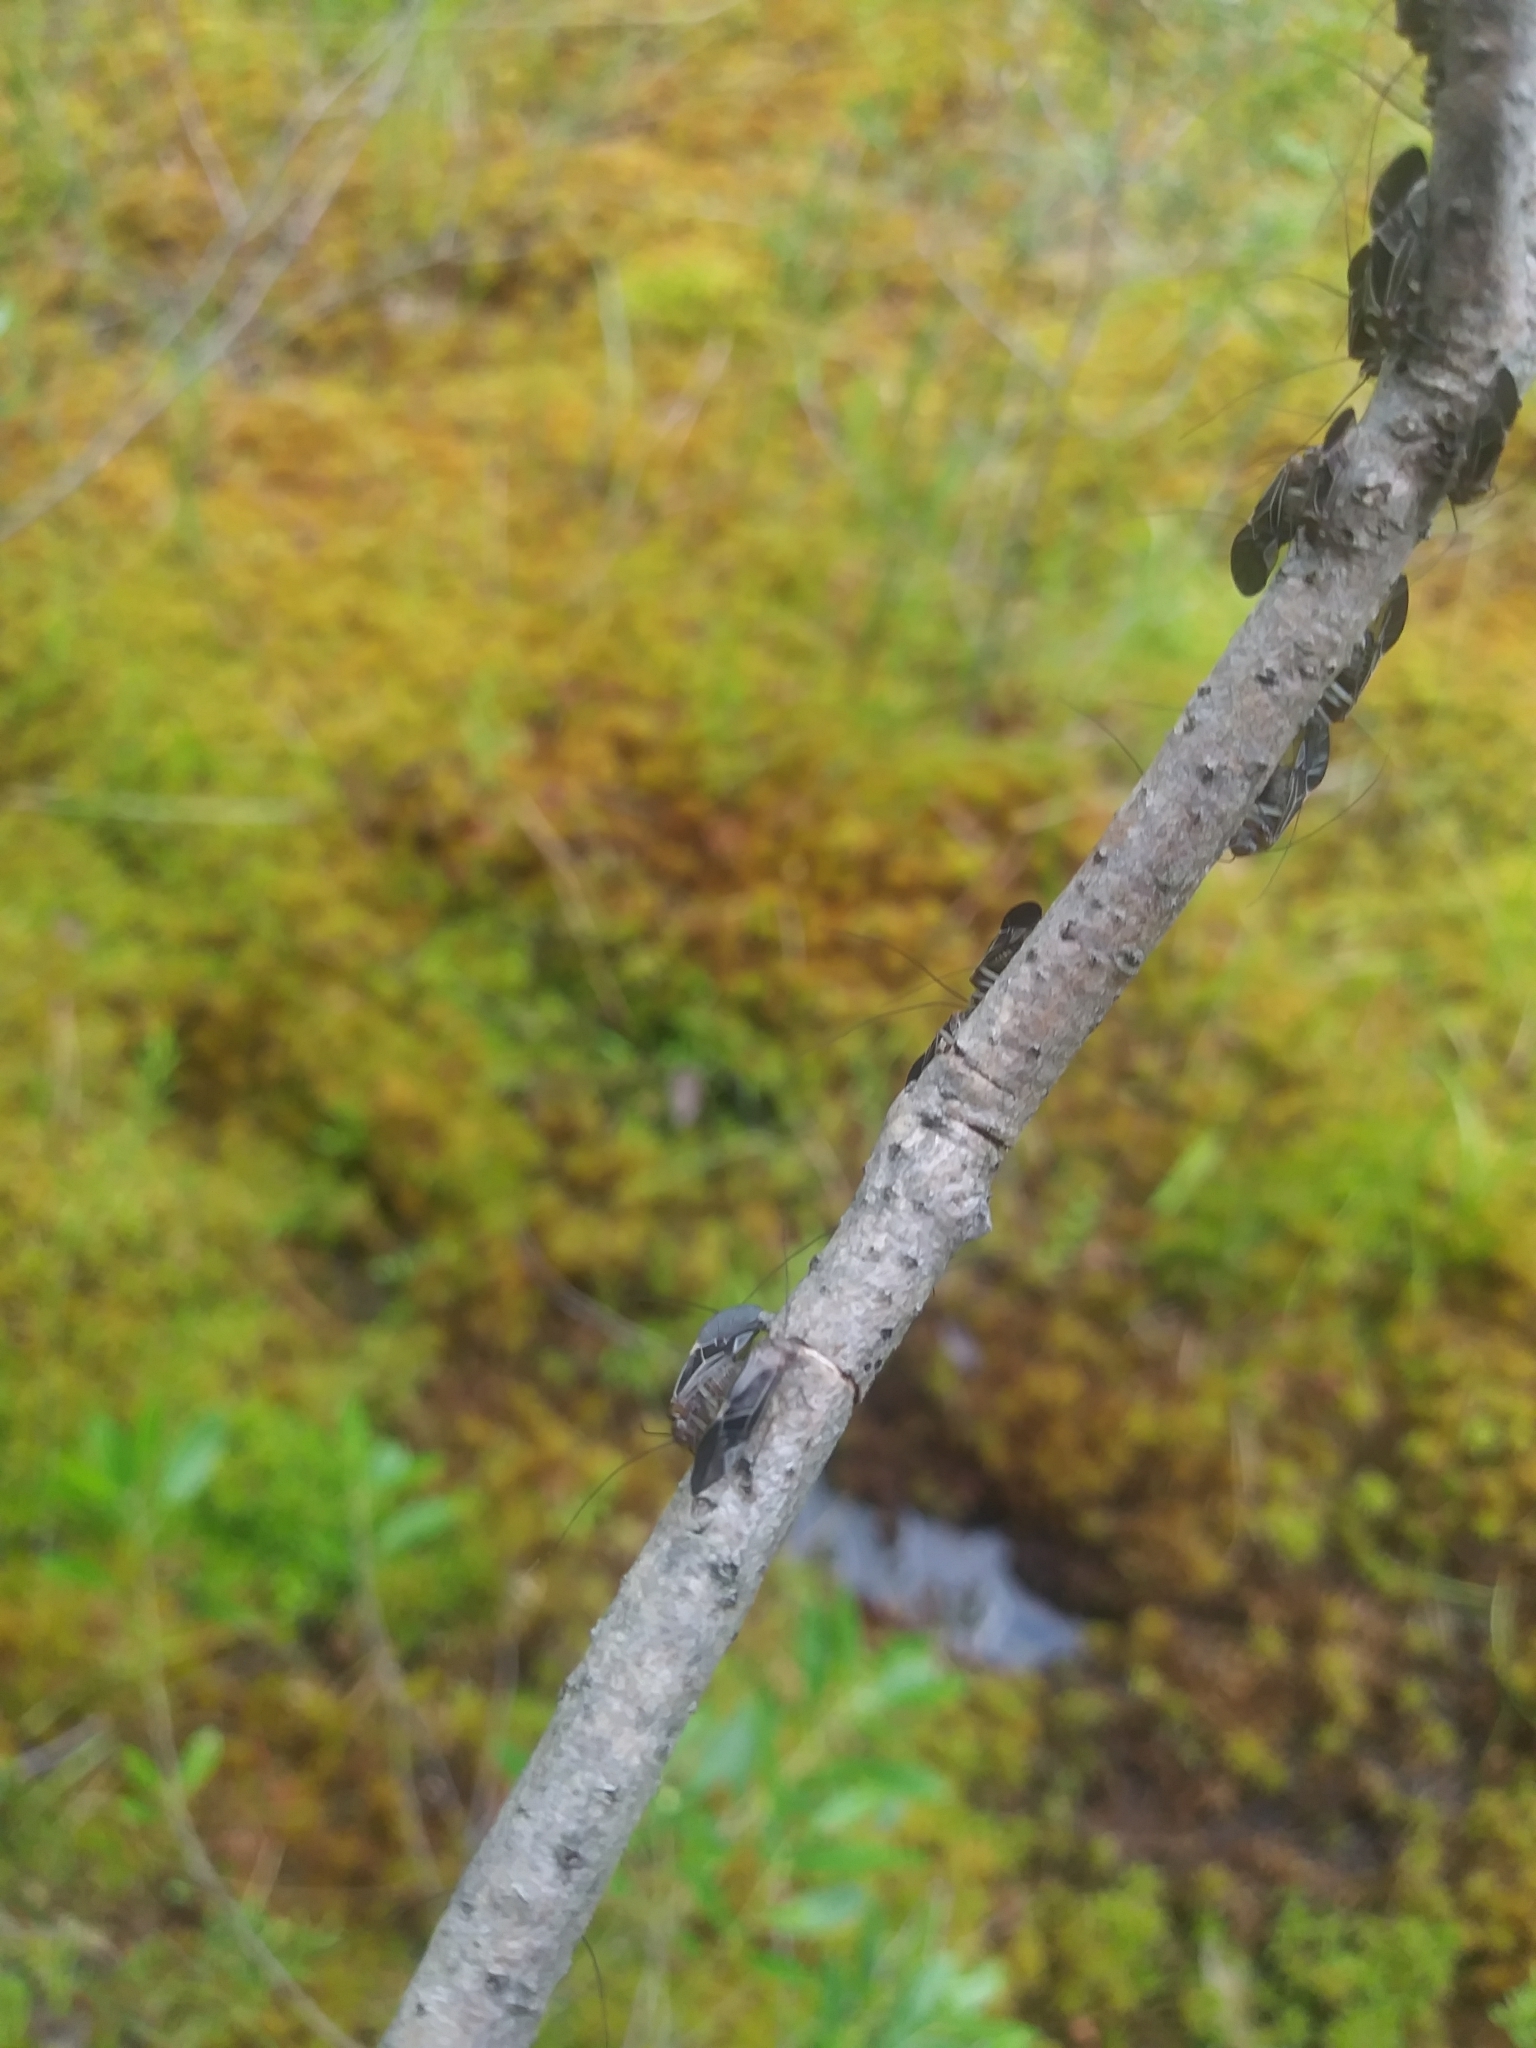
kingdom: Animalia
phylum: Arthropoda
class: Insecta
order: Psocodea
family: Psocidae
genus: Cerastipsocus
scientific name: Cerastipsocus venosus
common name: Tree cattle
